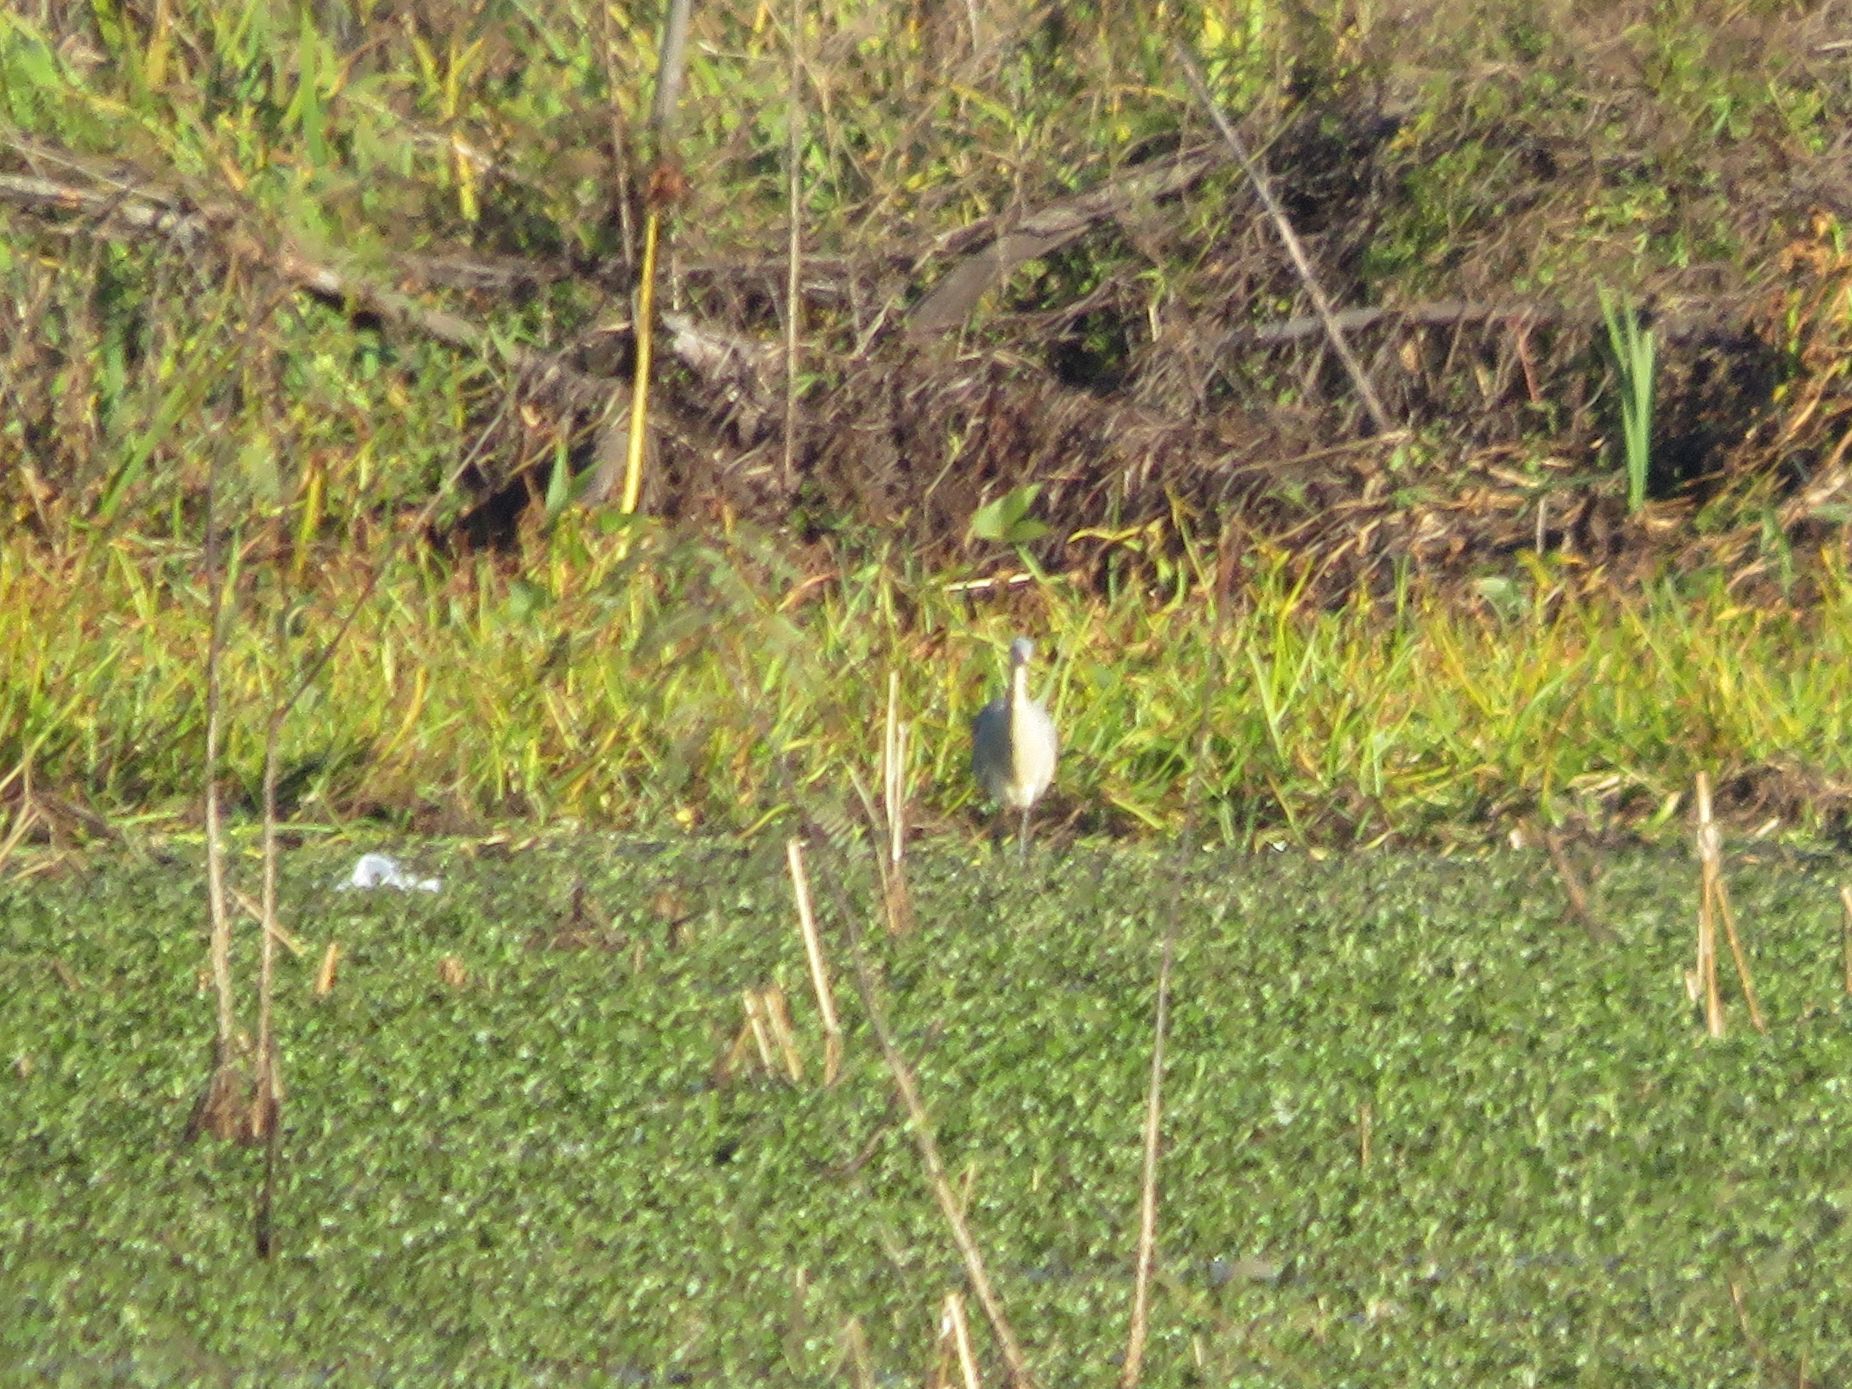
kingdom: Animalia
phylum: Chordata
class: Aves
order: Pelecaniformes
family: Ardeidae
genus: Syrigma
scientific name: Syrigma sibilatrix
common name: Whistling heron
